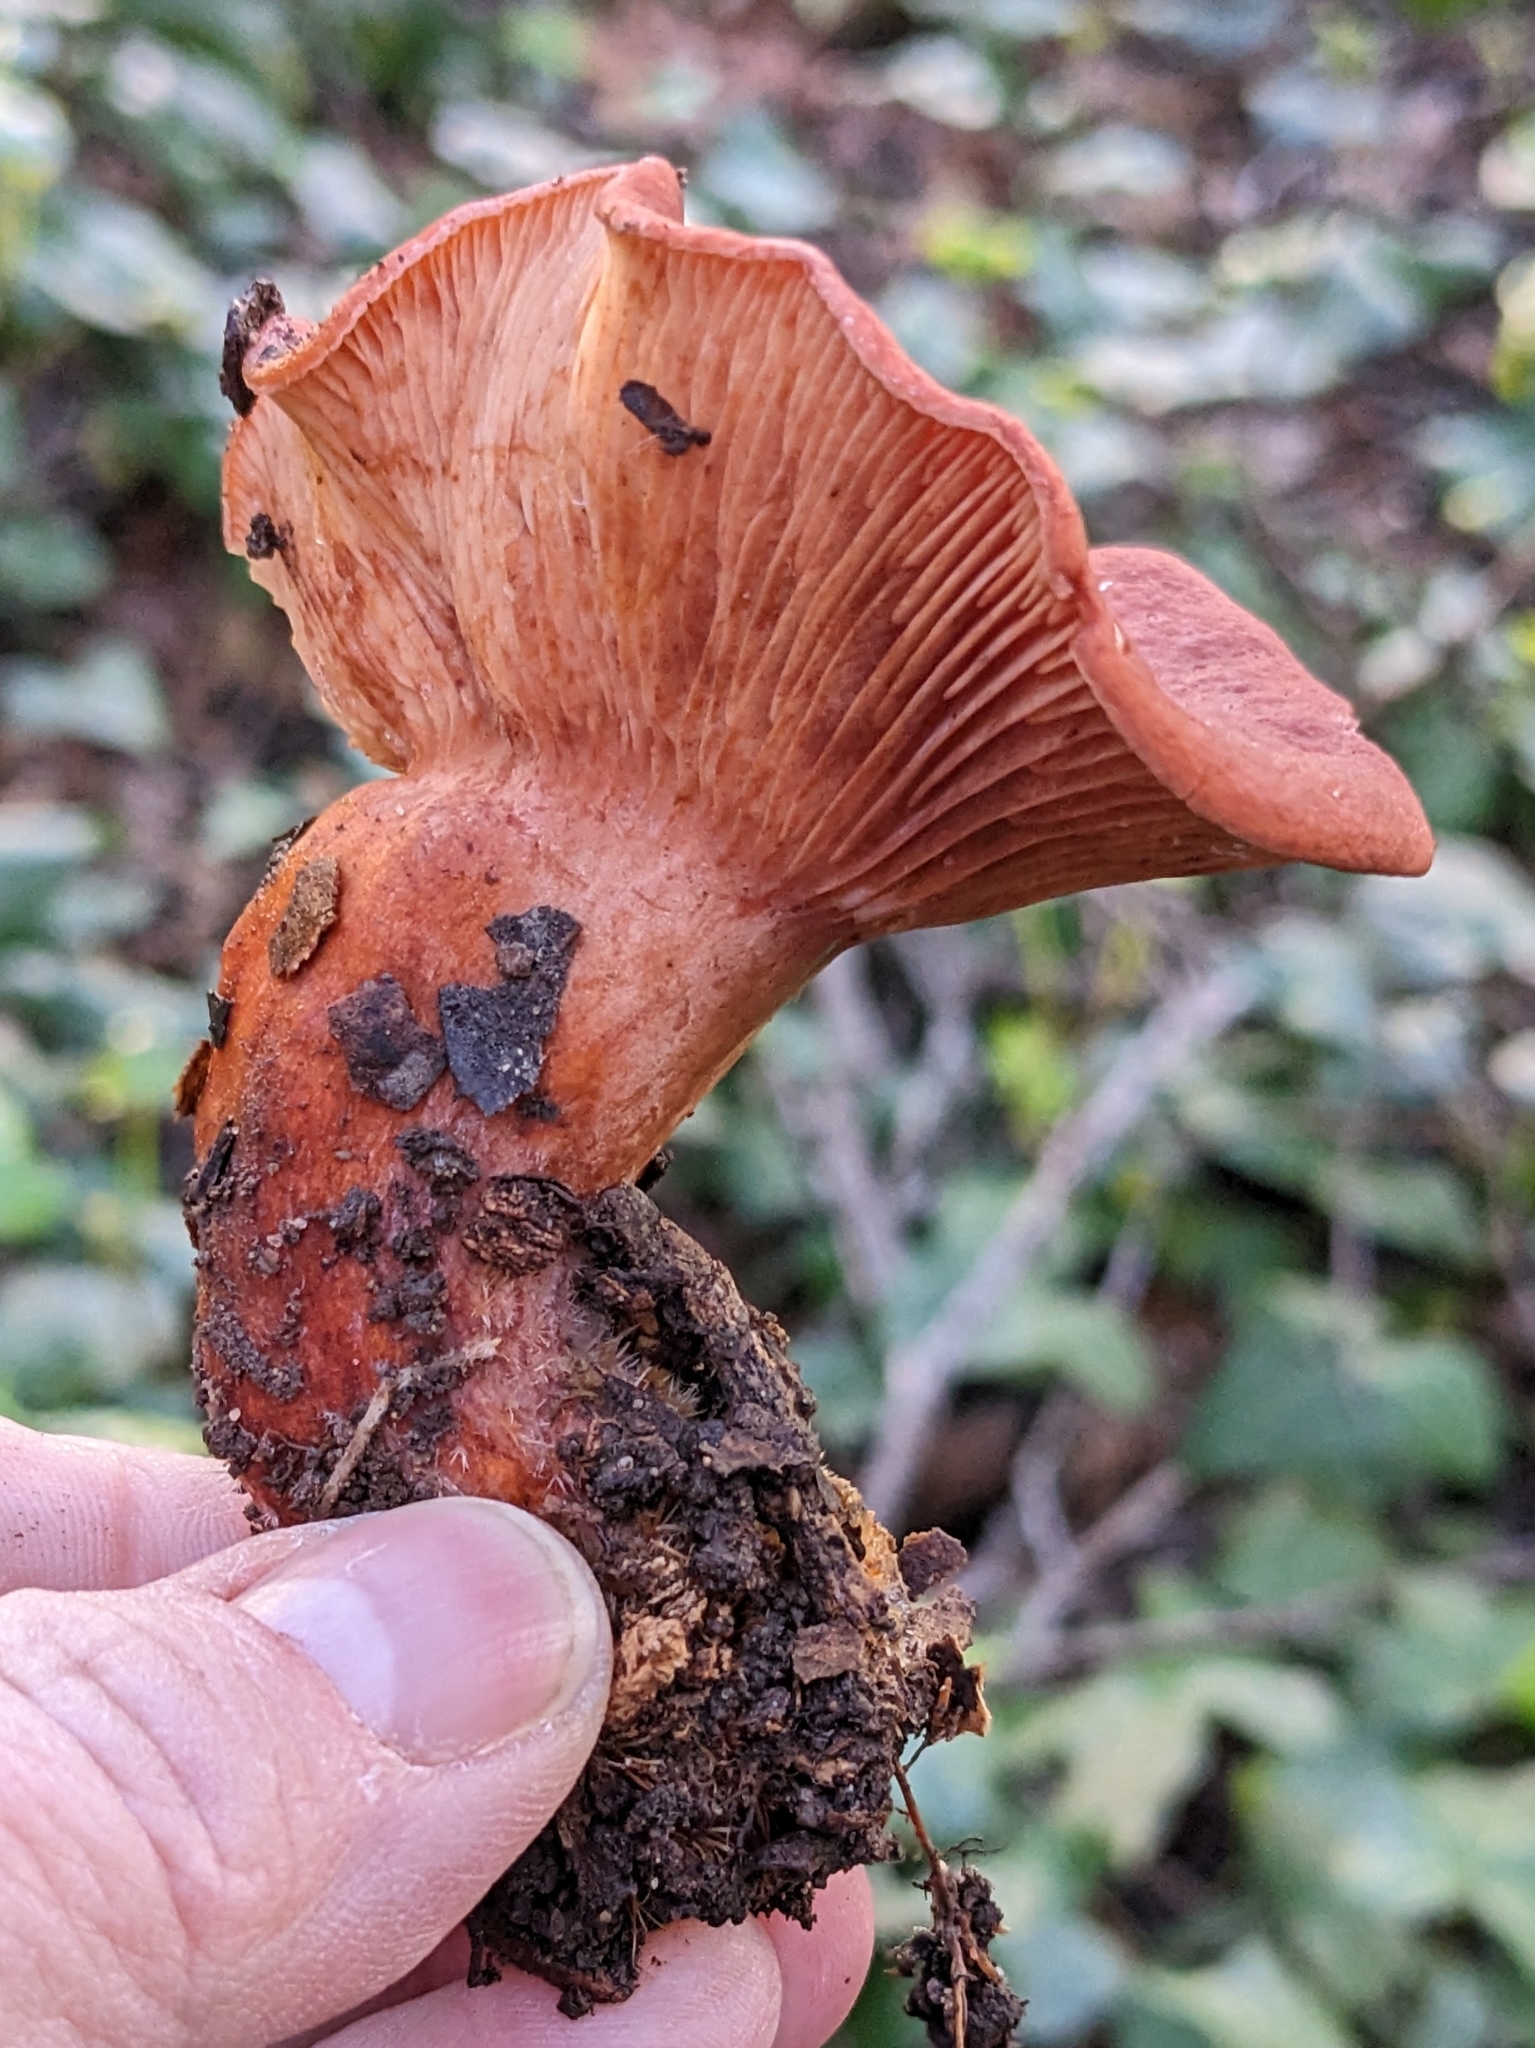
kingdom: Fungi
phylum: Basidiomycota
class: Agaricomycetes
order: Russulales
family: Russulaceae
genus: Lactarius
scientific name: Lactarius rufulus
